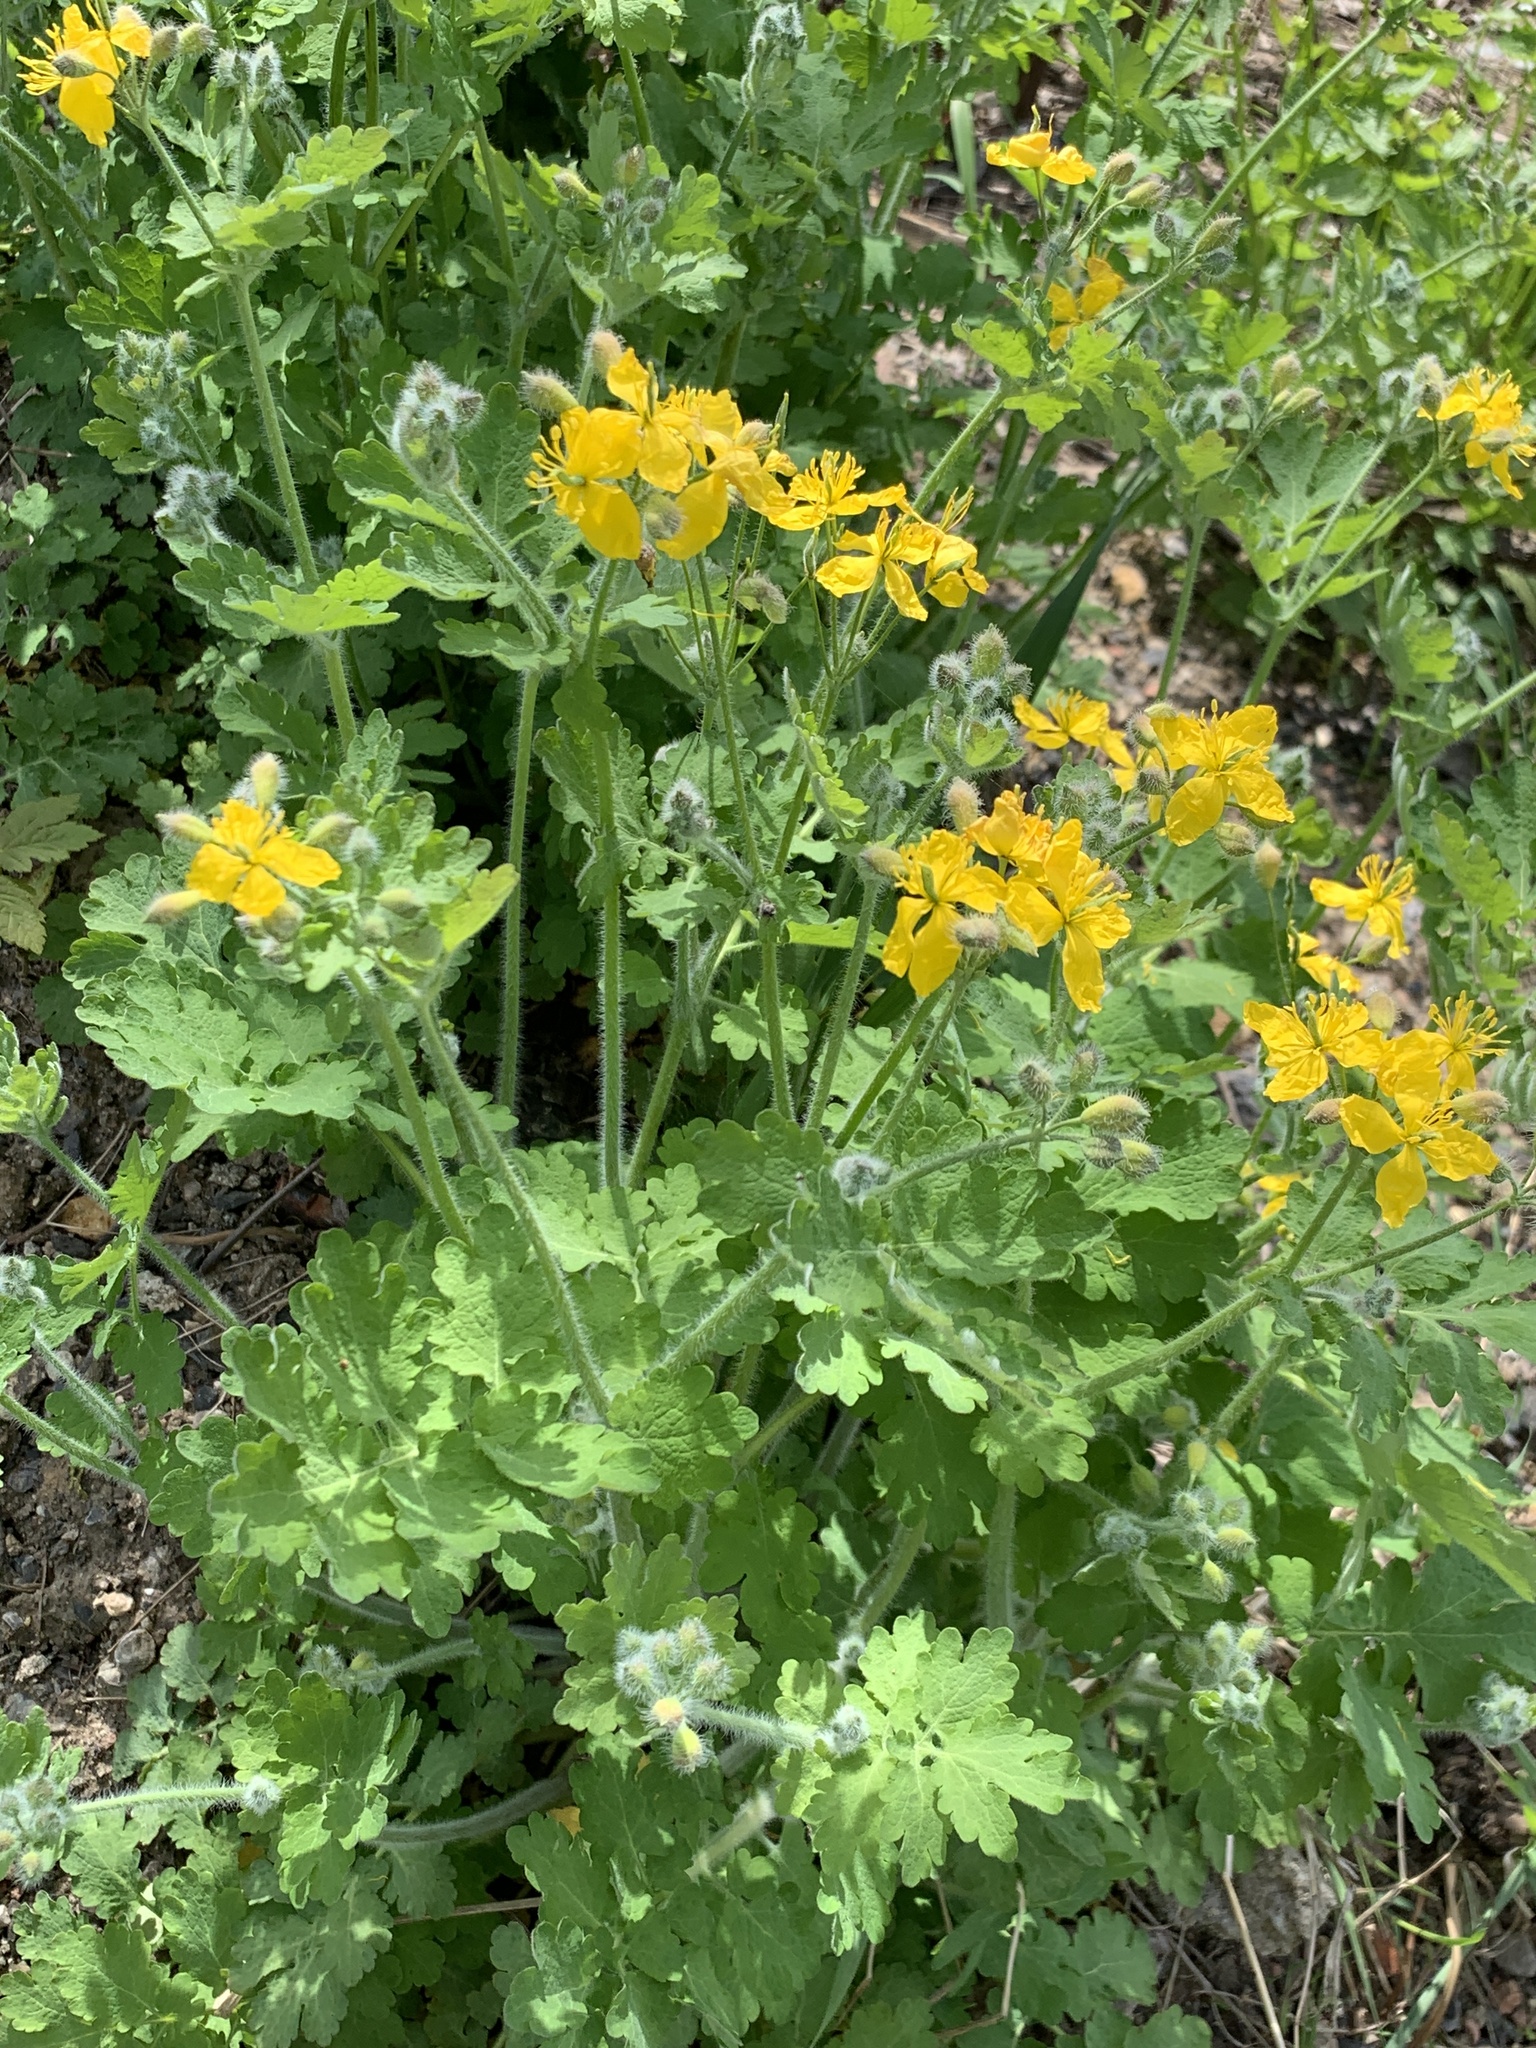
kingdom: Plantae
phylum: Tracheophyta
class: Magnoliopsida
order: Ranunculales
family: Papaveraceae
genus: Chelidonium
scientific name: Chelidonium majus
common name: Greater celandine
